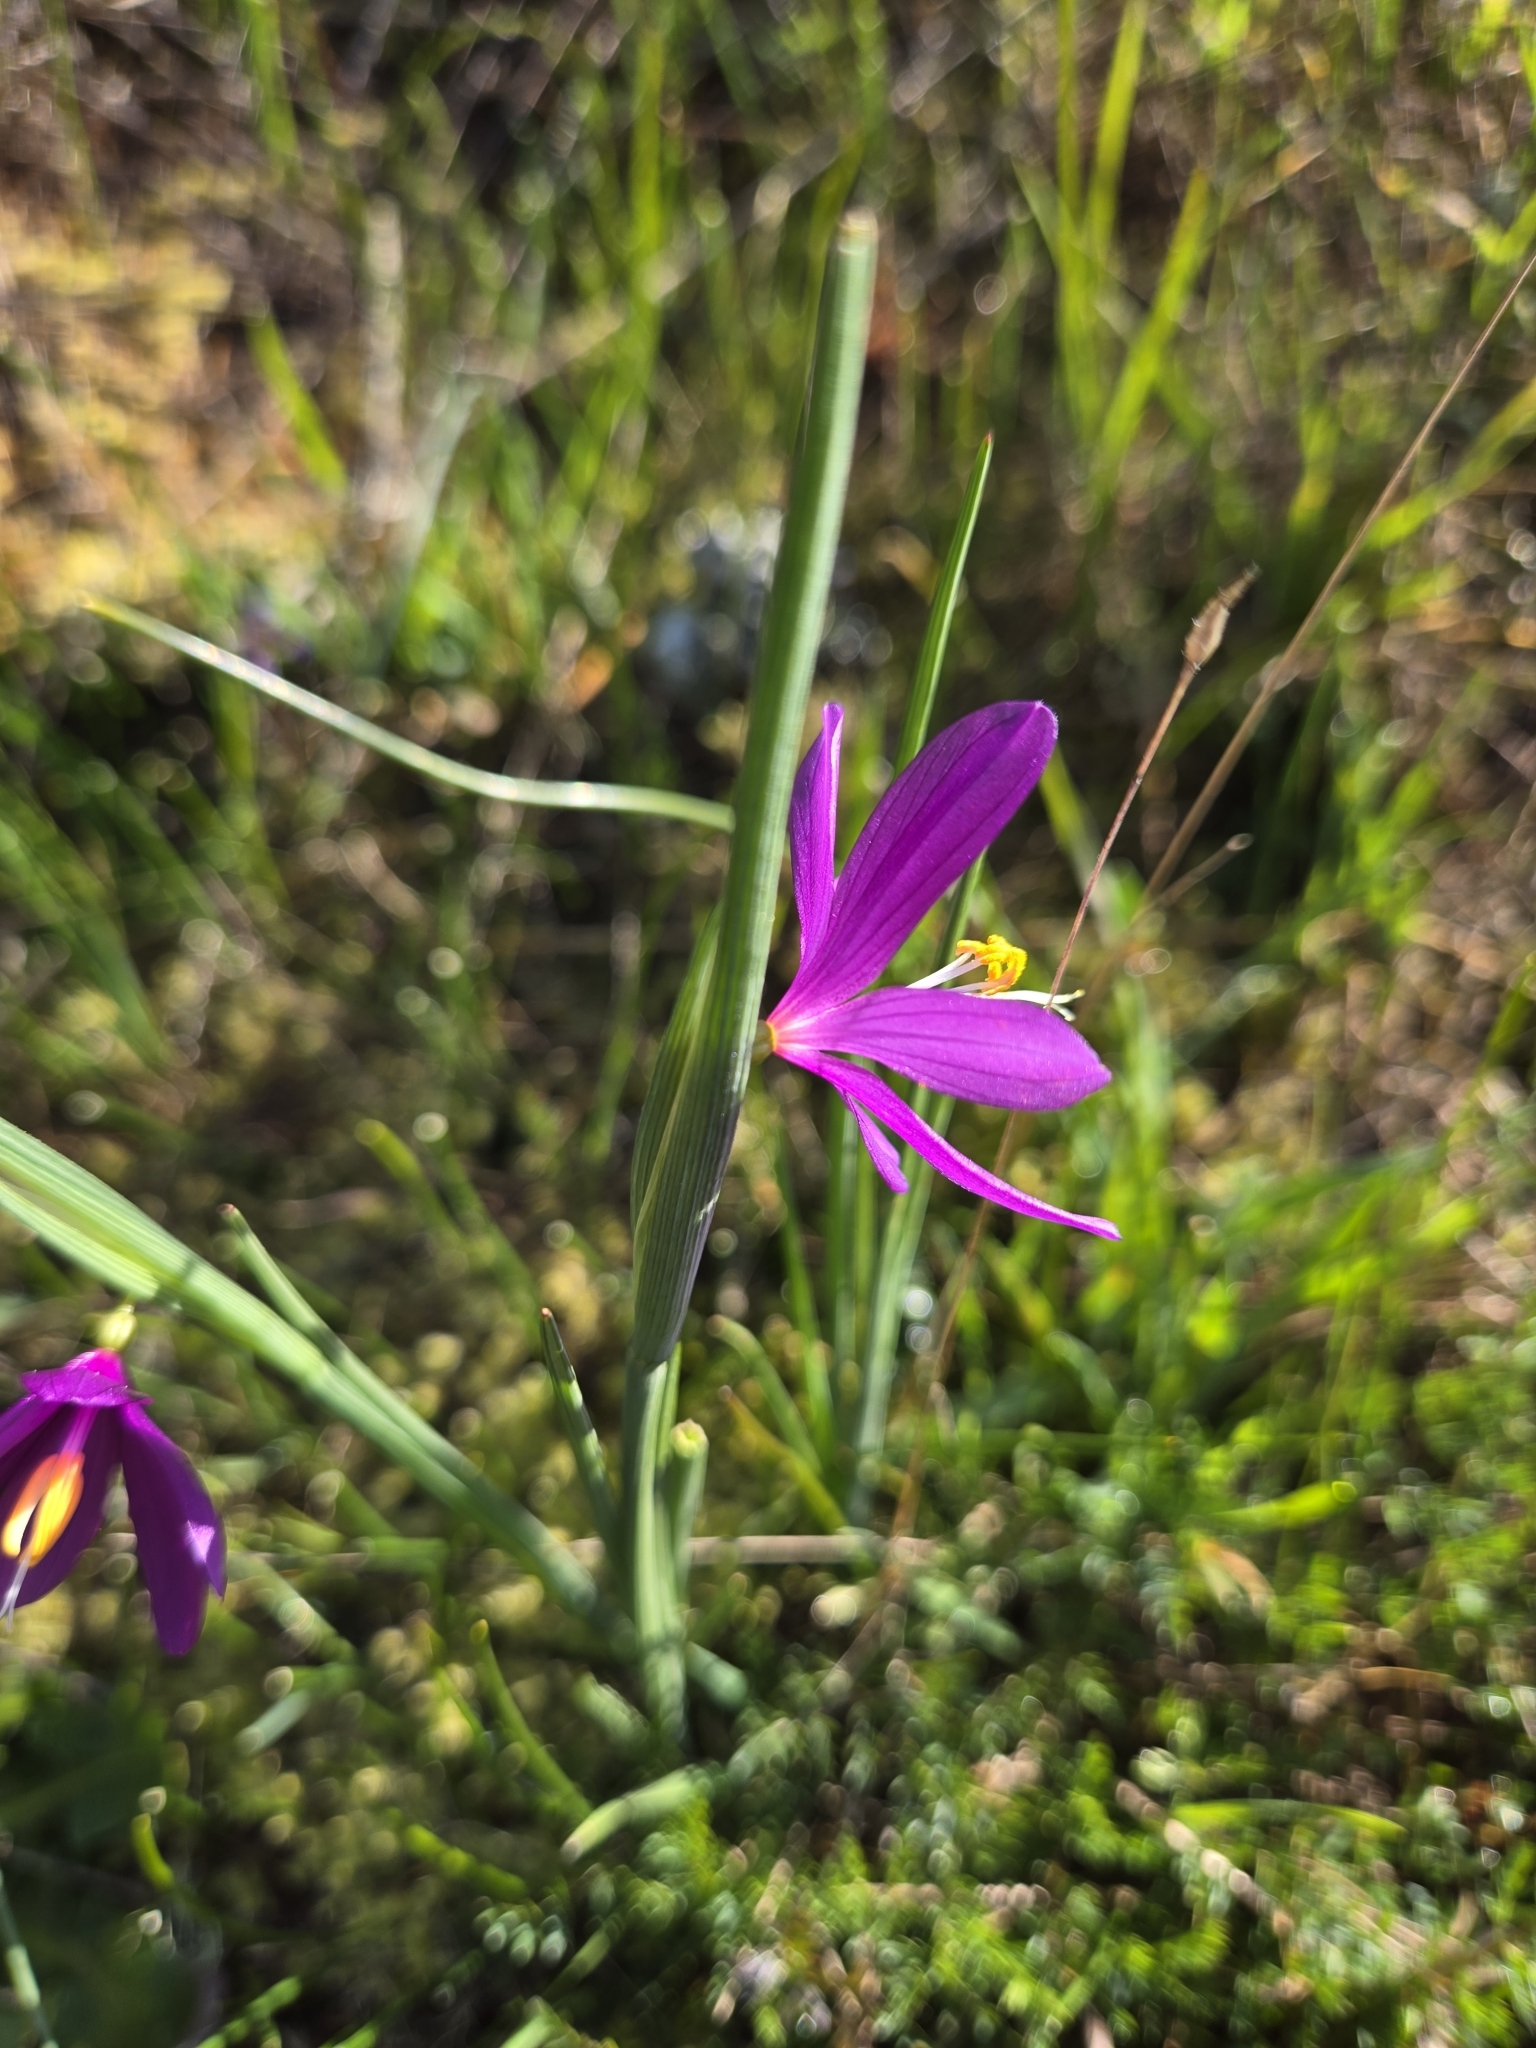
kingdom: Plantae
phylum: Tracheophyta
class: Liliopsida
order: Asparagales
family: Iridaceae
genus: Olsynium
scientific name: Olsynium douglasii
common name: Douglas' grasswidow
